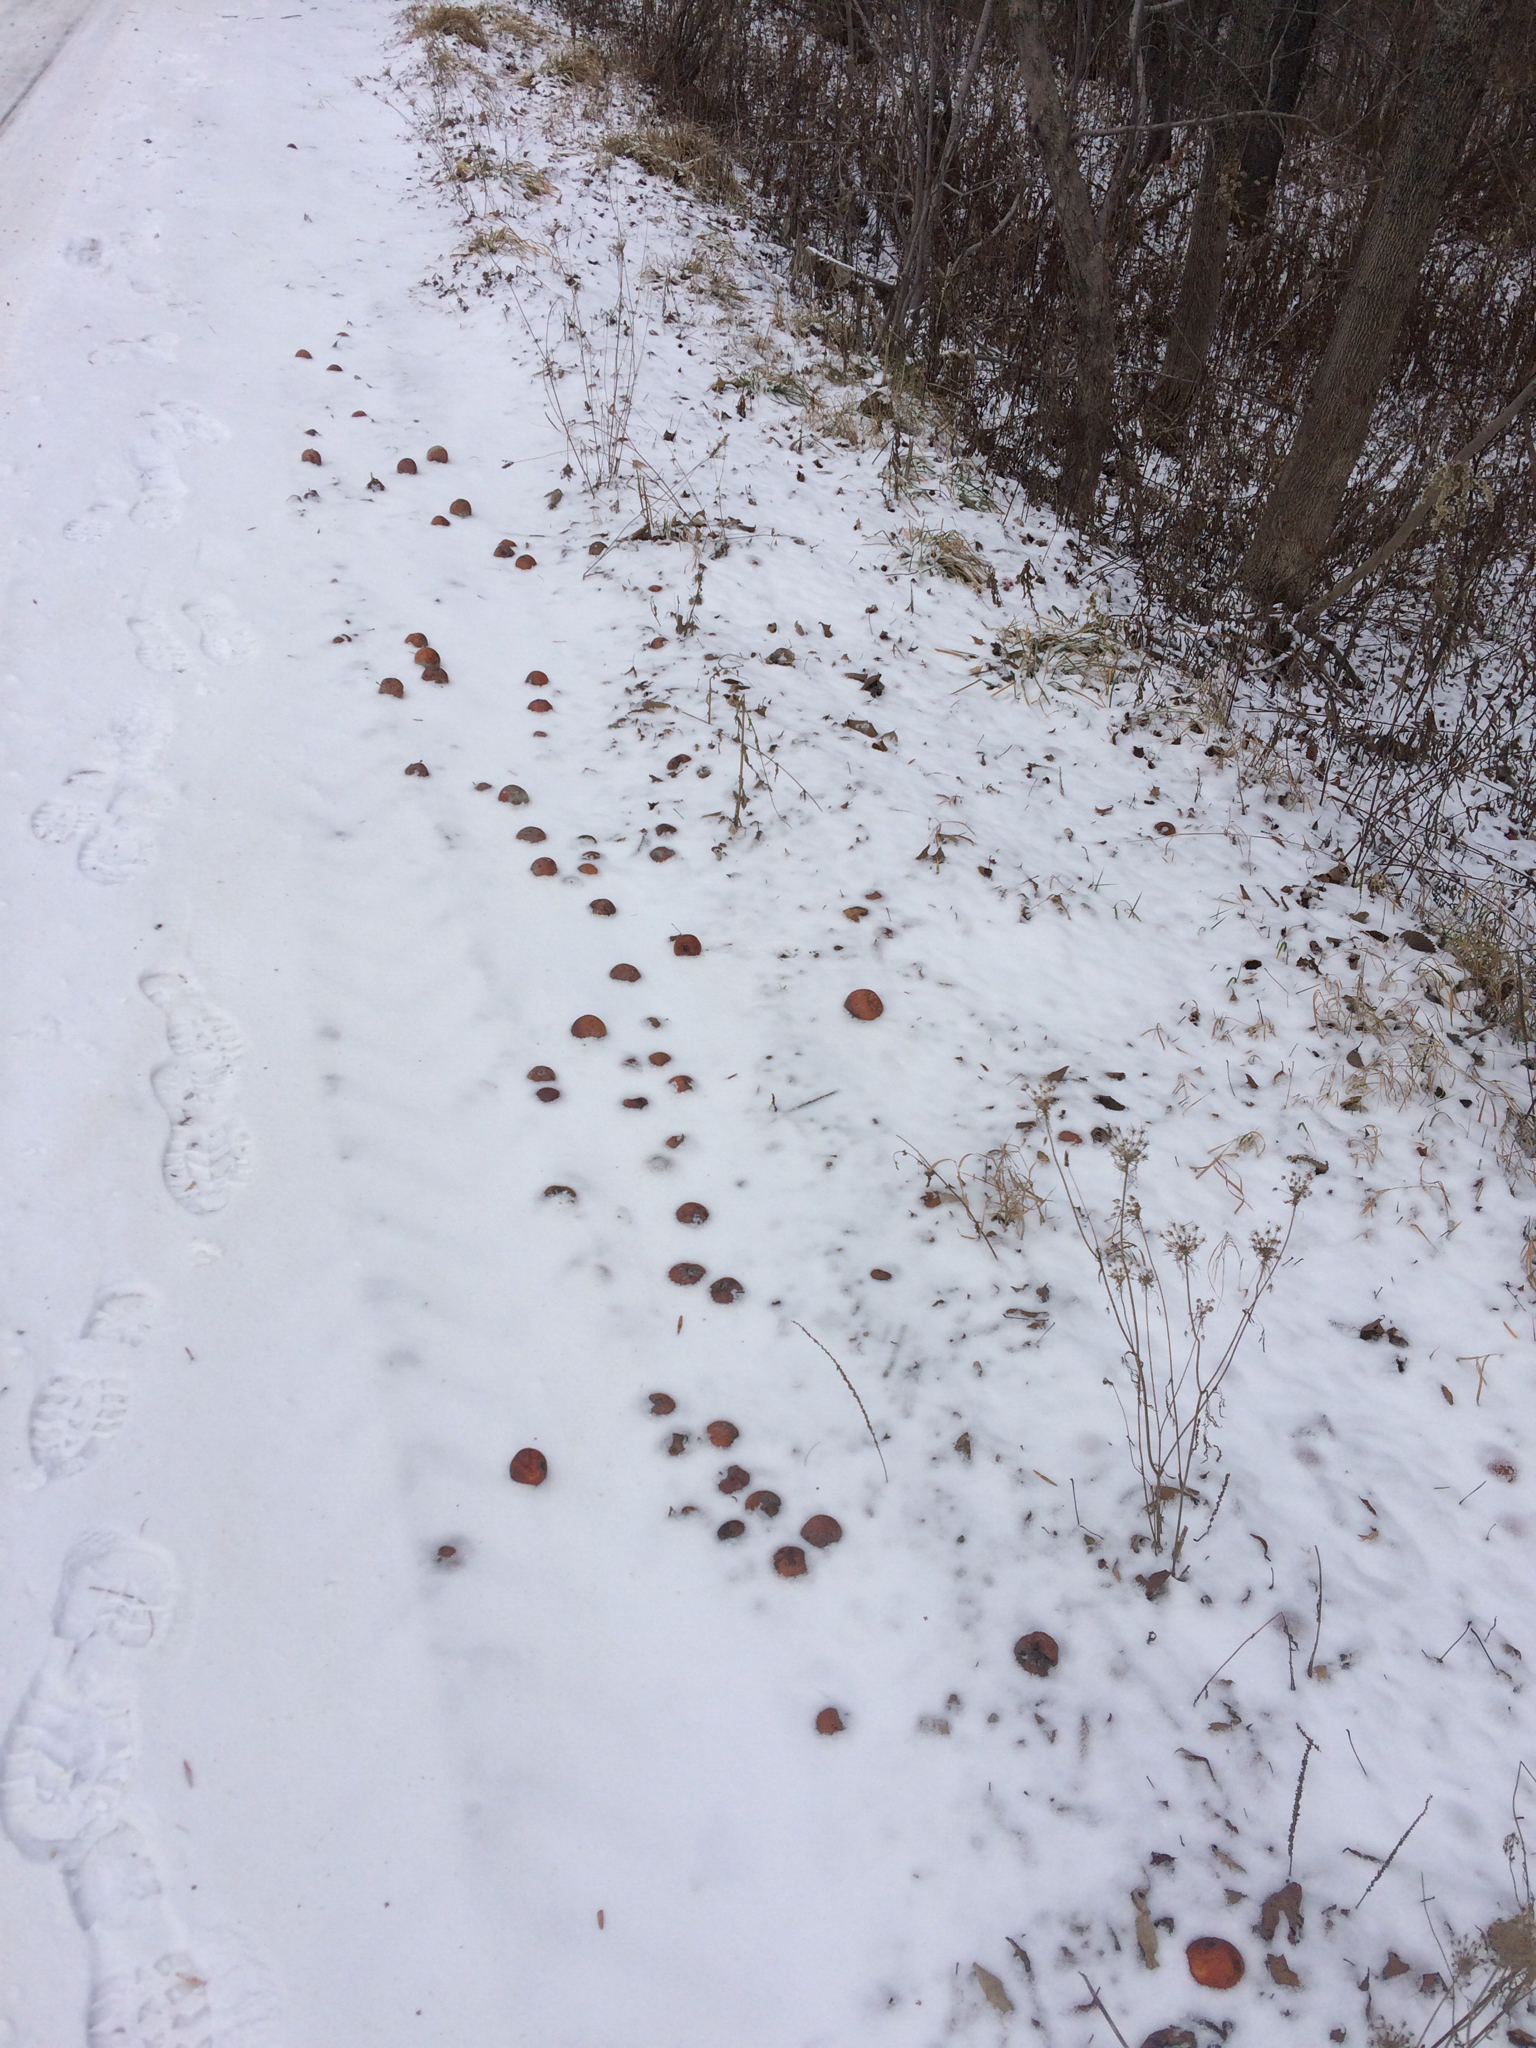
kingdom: Plantae
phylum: Tracheophyta
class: Magnoliopsida
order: Rosales
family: Rosaceae
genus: Malus
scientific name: Malus domestica
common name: Apple
